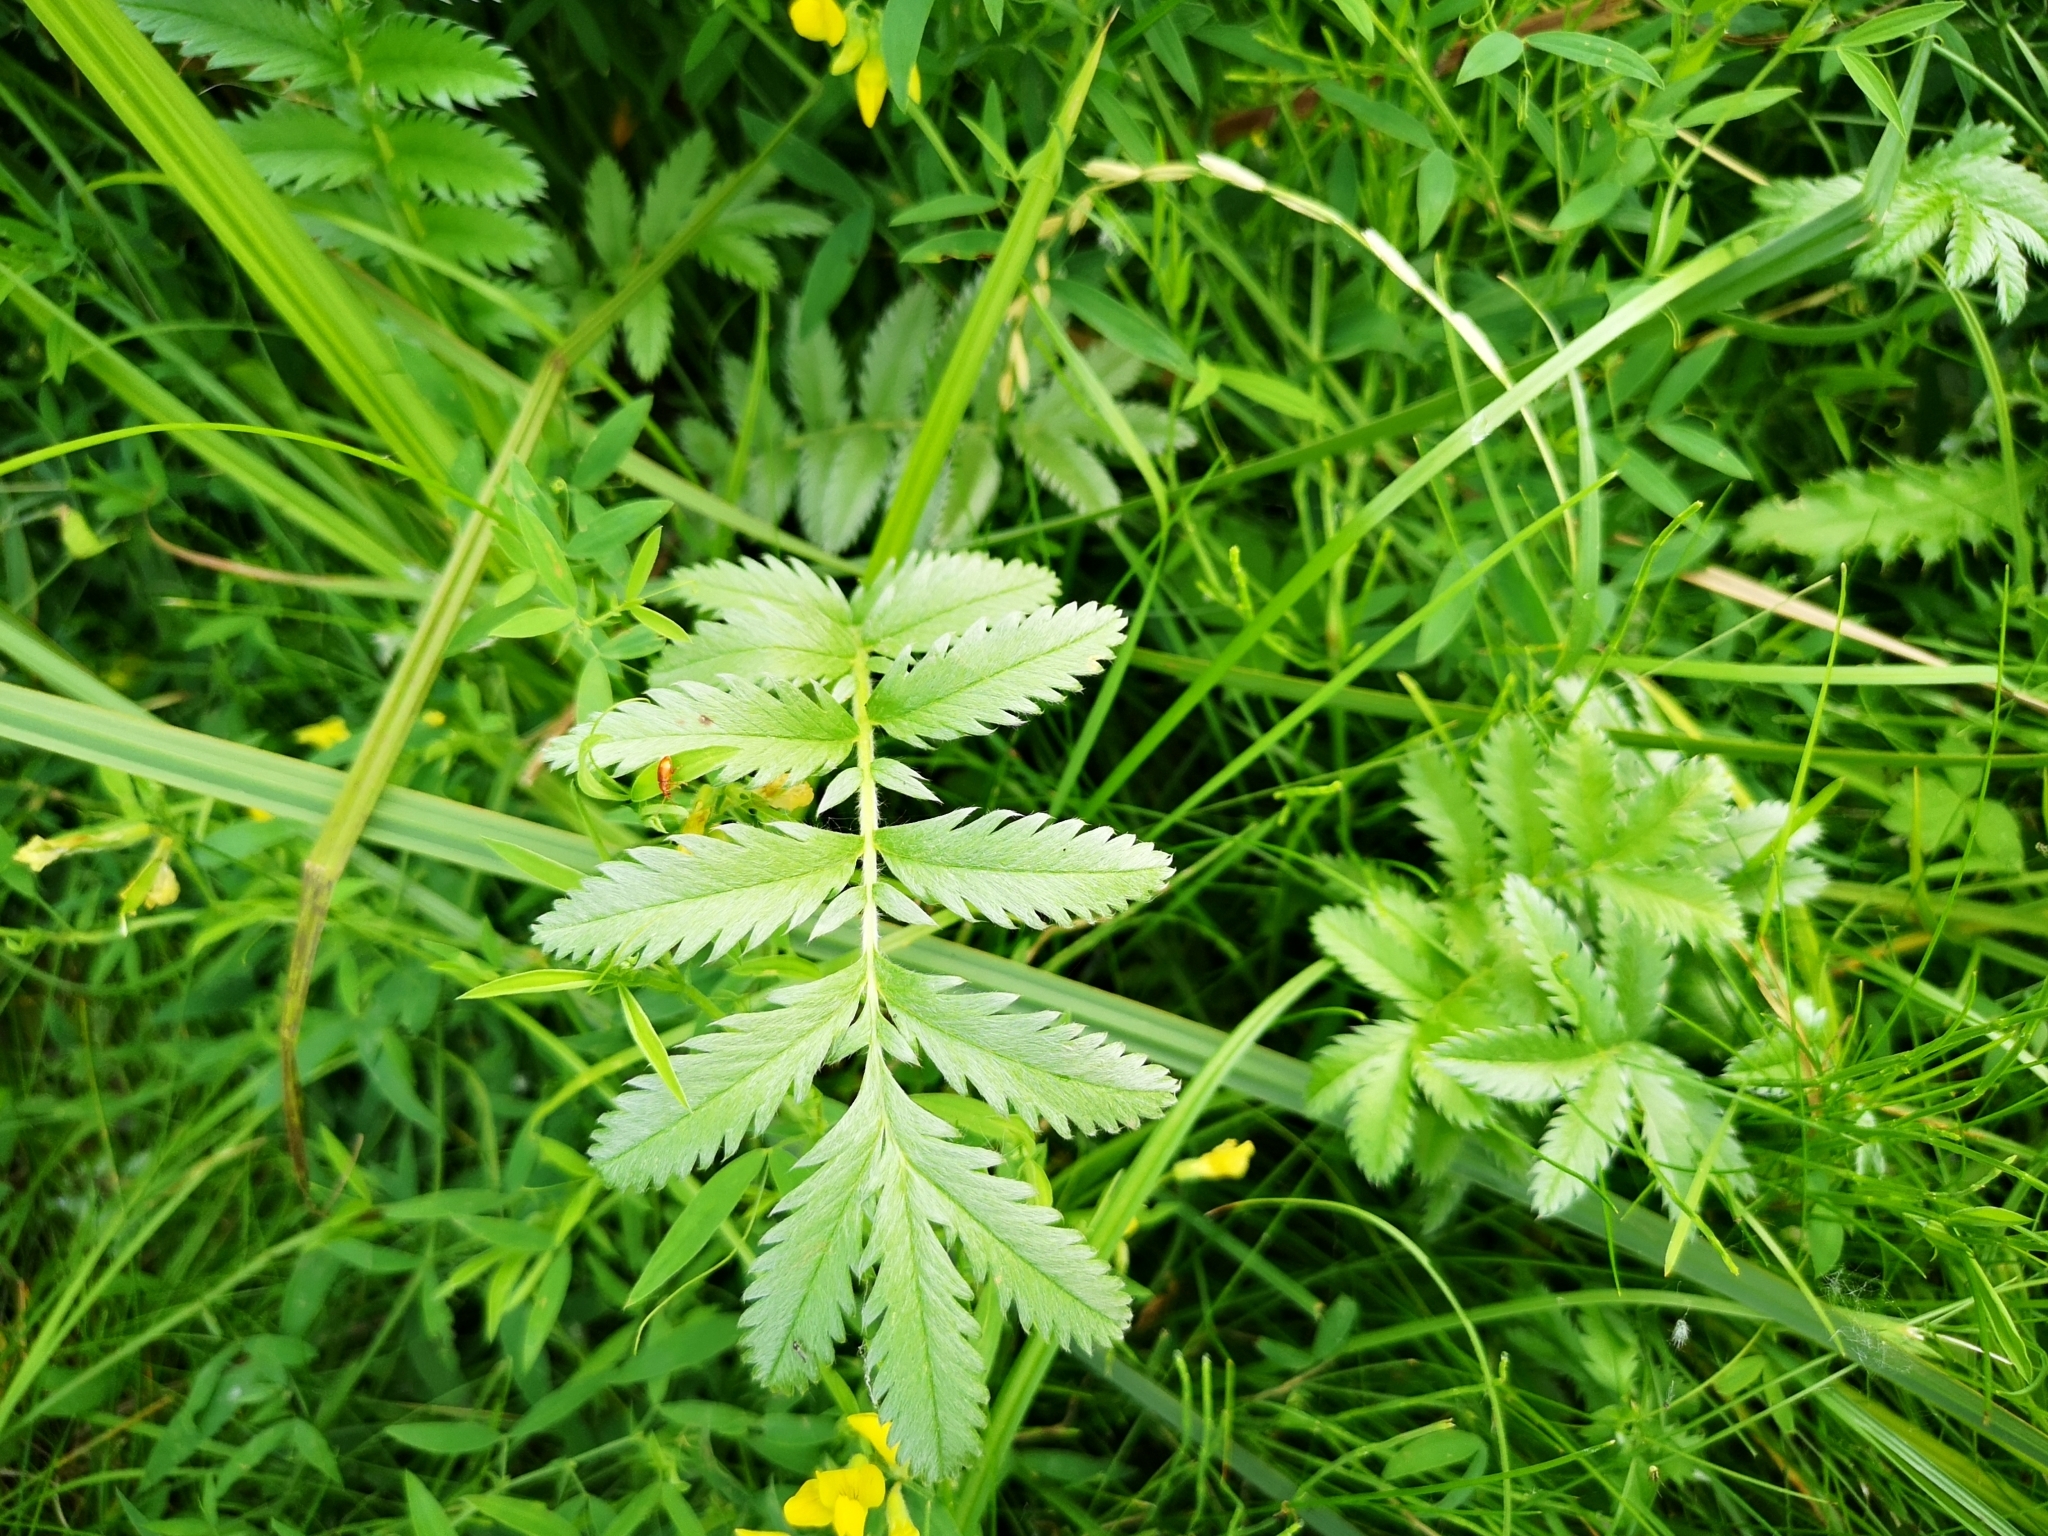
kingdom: Plantae
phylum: Tracheophyta
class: Magnoliopsida
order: Rosales
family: Rosaceae
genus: Argentina
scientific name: Argentina anserina
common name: Common silverweed
